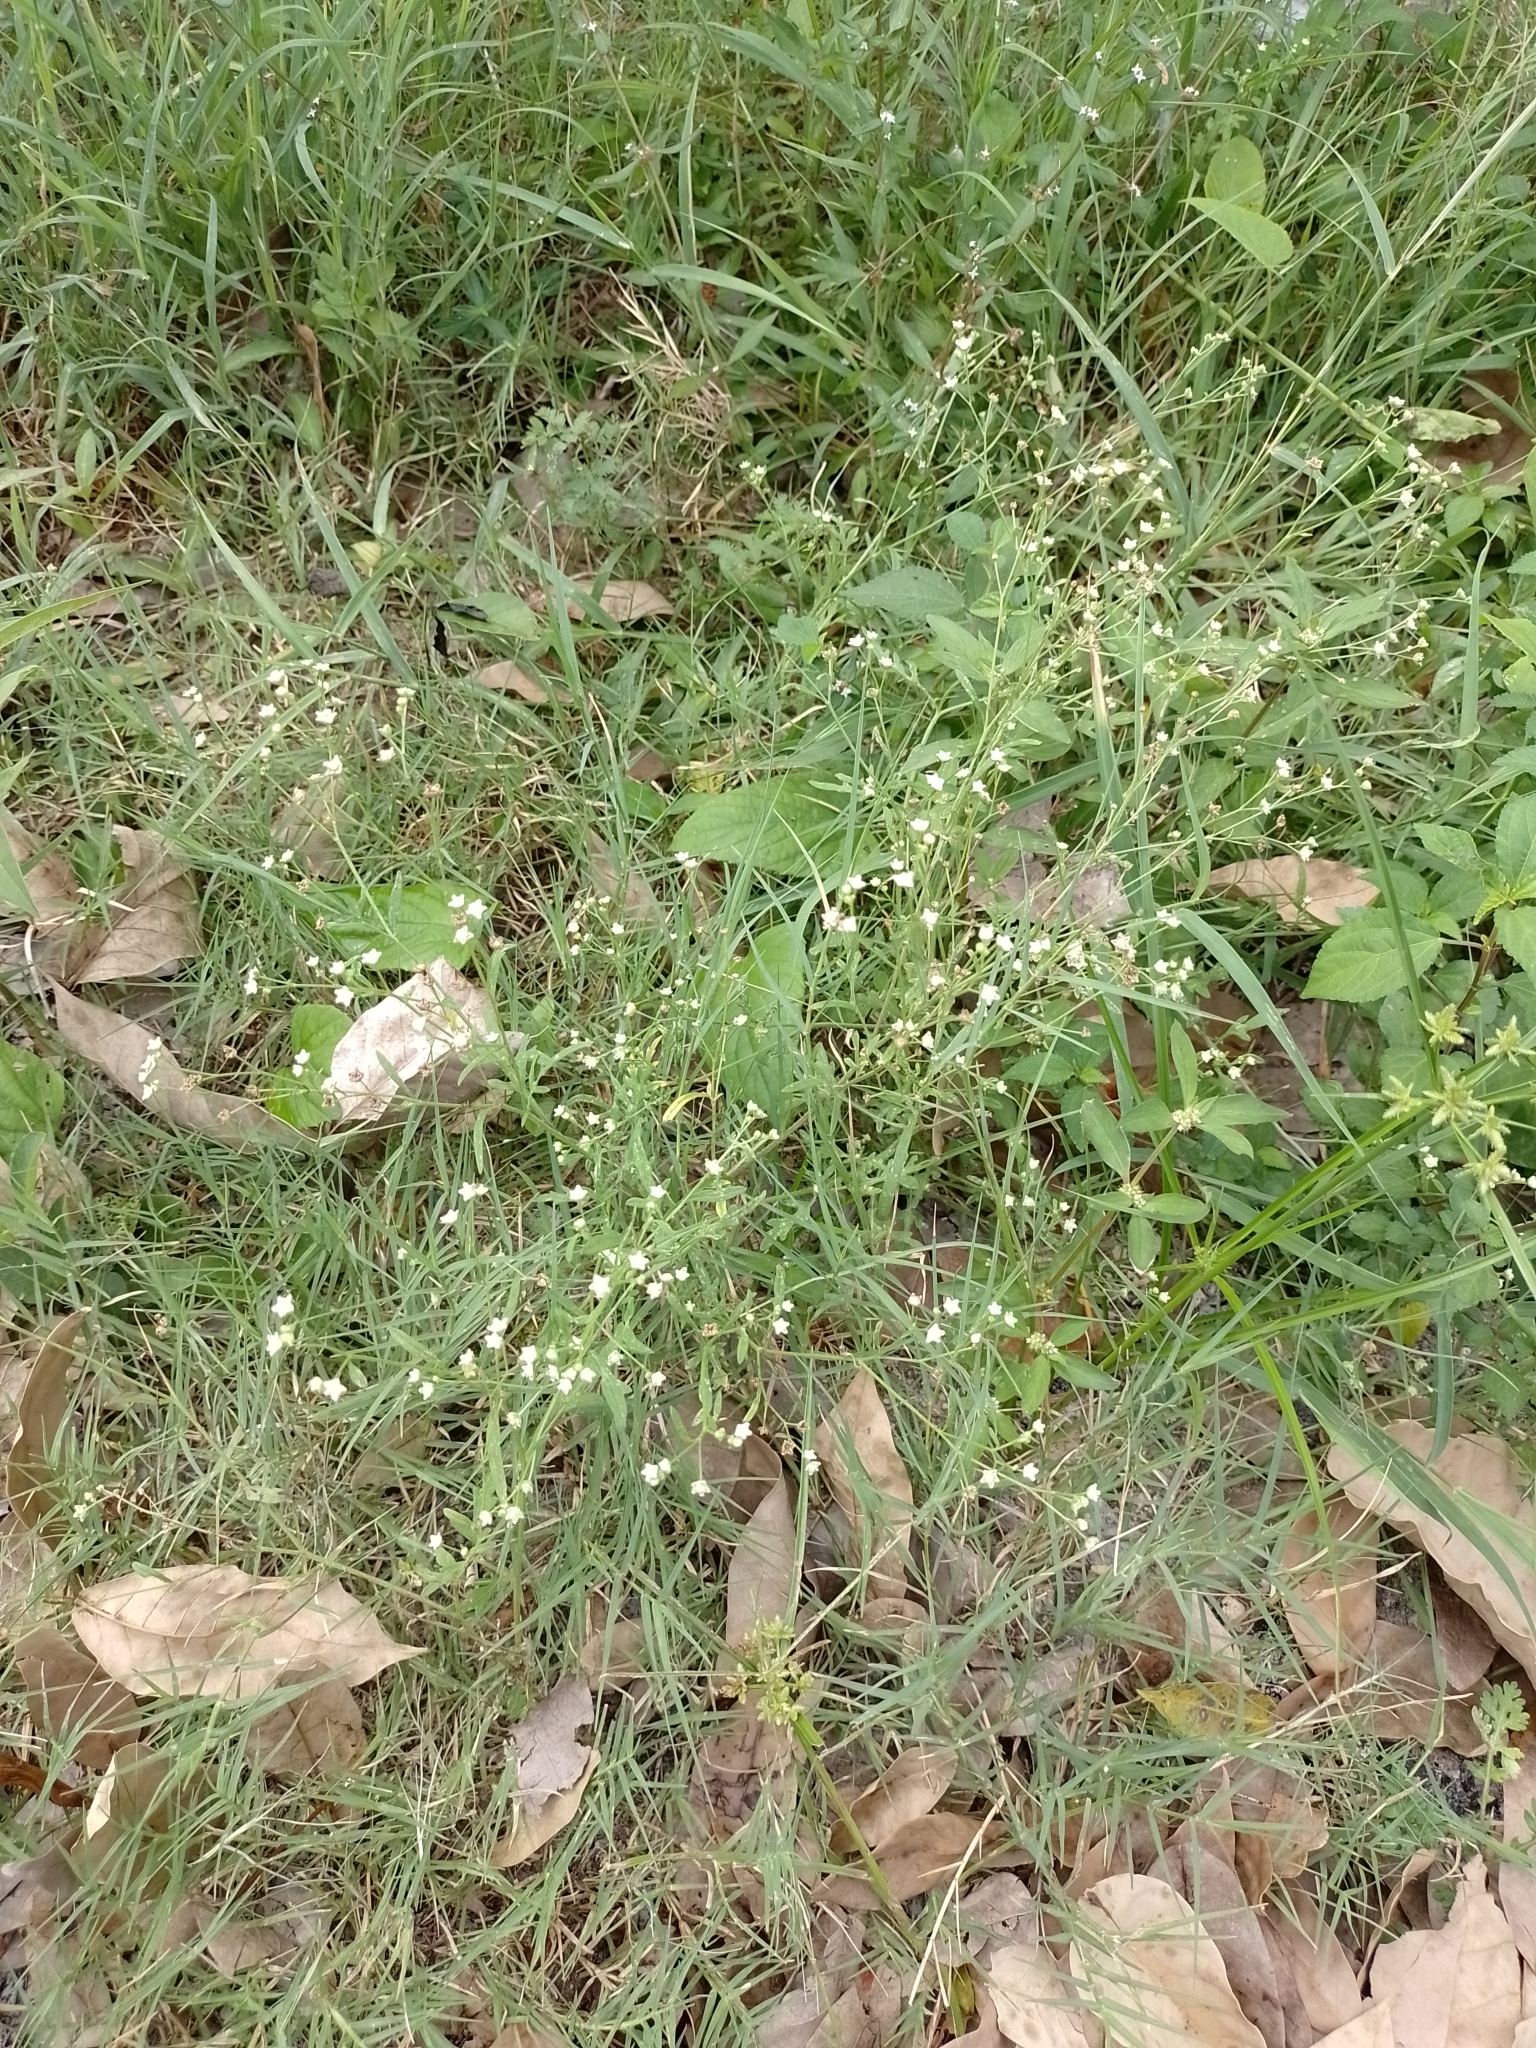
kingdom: Plantae
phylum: Tracheophyta
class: Magnoliopsida
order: Asterales
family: Asteraceae
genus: Parthenium
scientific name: Parthenium hysterophorus
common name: Santa maria feverfew
